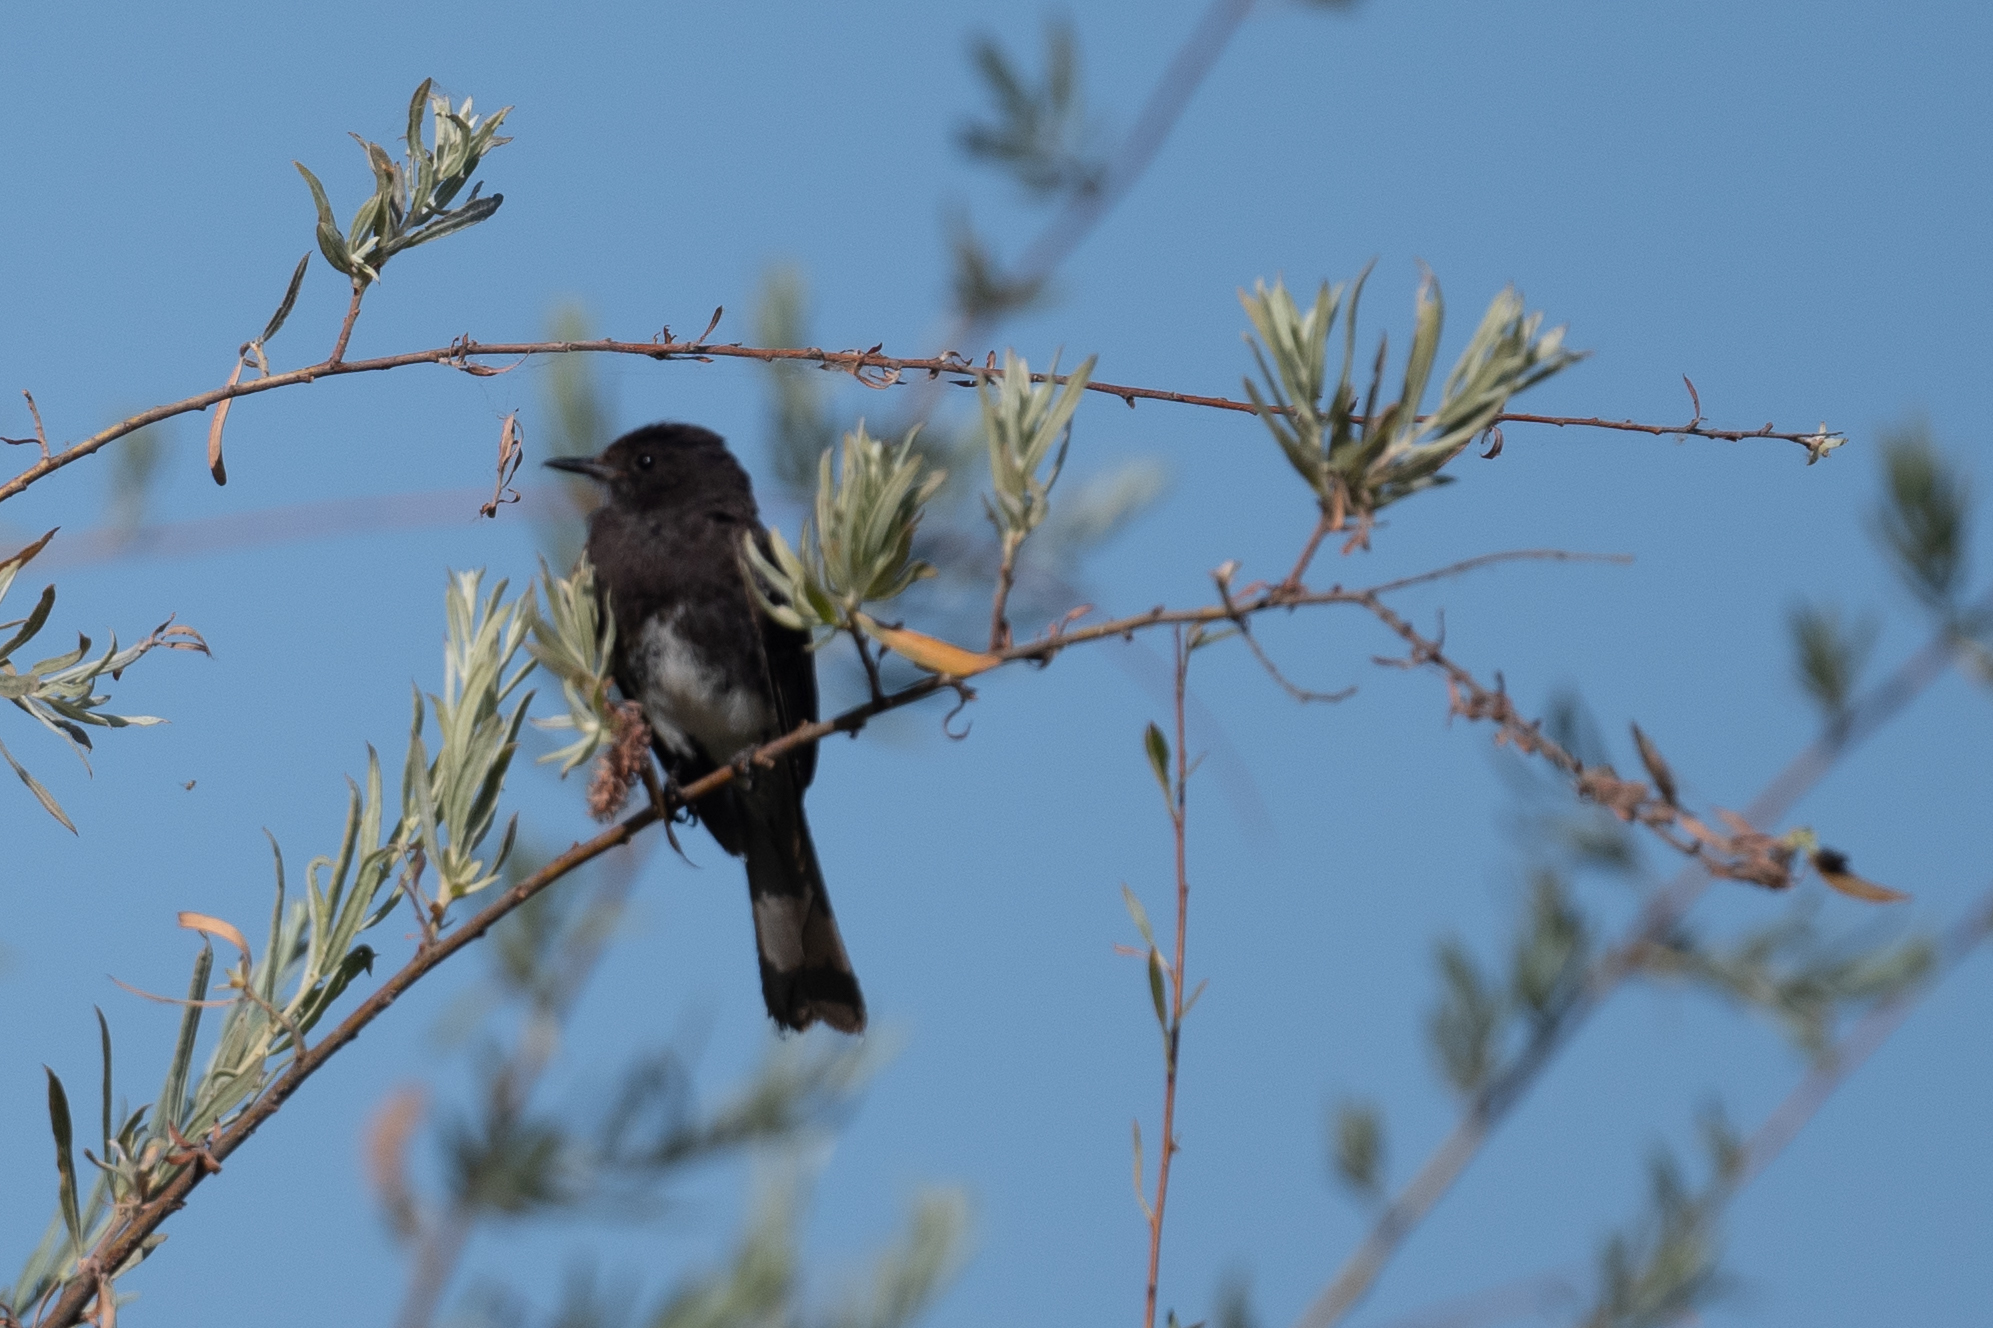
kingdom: Animalia
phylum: Chordata
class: Aves
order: Passeriformes
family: Tyrannidae
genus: Sayornis
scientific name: Sayornis nigricans
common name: Black phoebe
